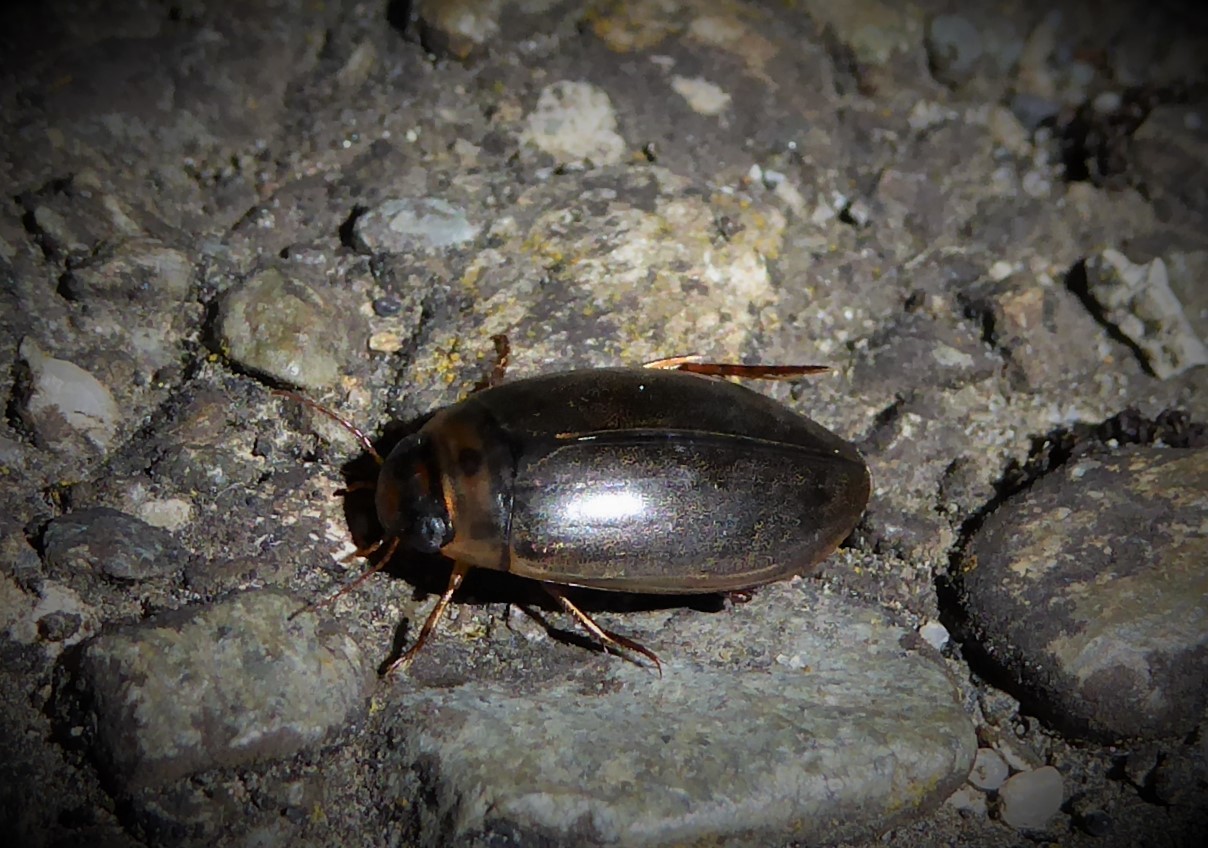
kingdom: Animalia
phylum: Arthropoda
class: Insecta
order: Coleoptera
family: Dytiscidae
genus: Rhantus
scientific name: Rhantus suturalis
